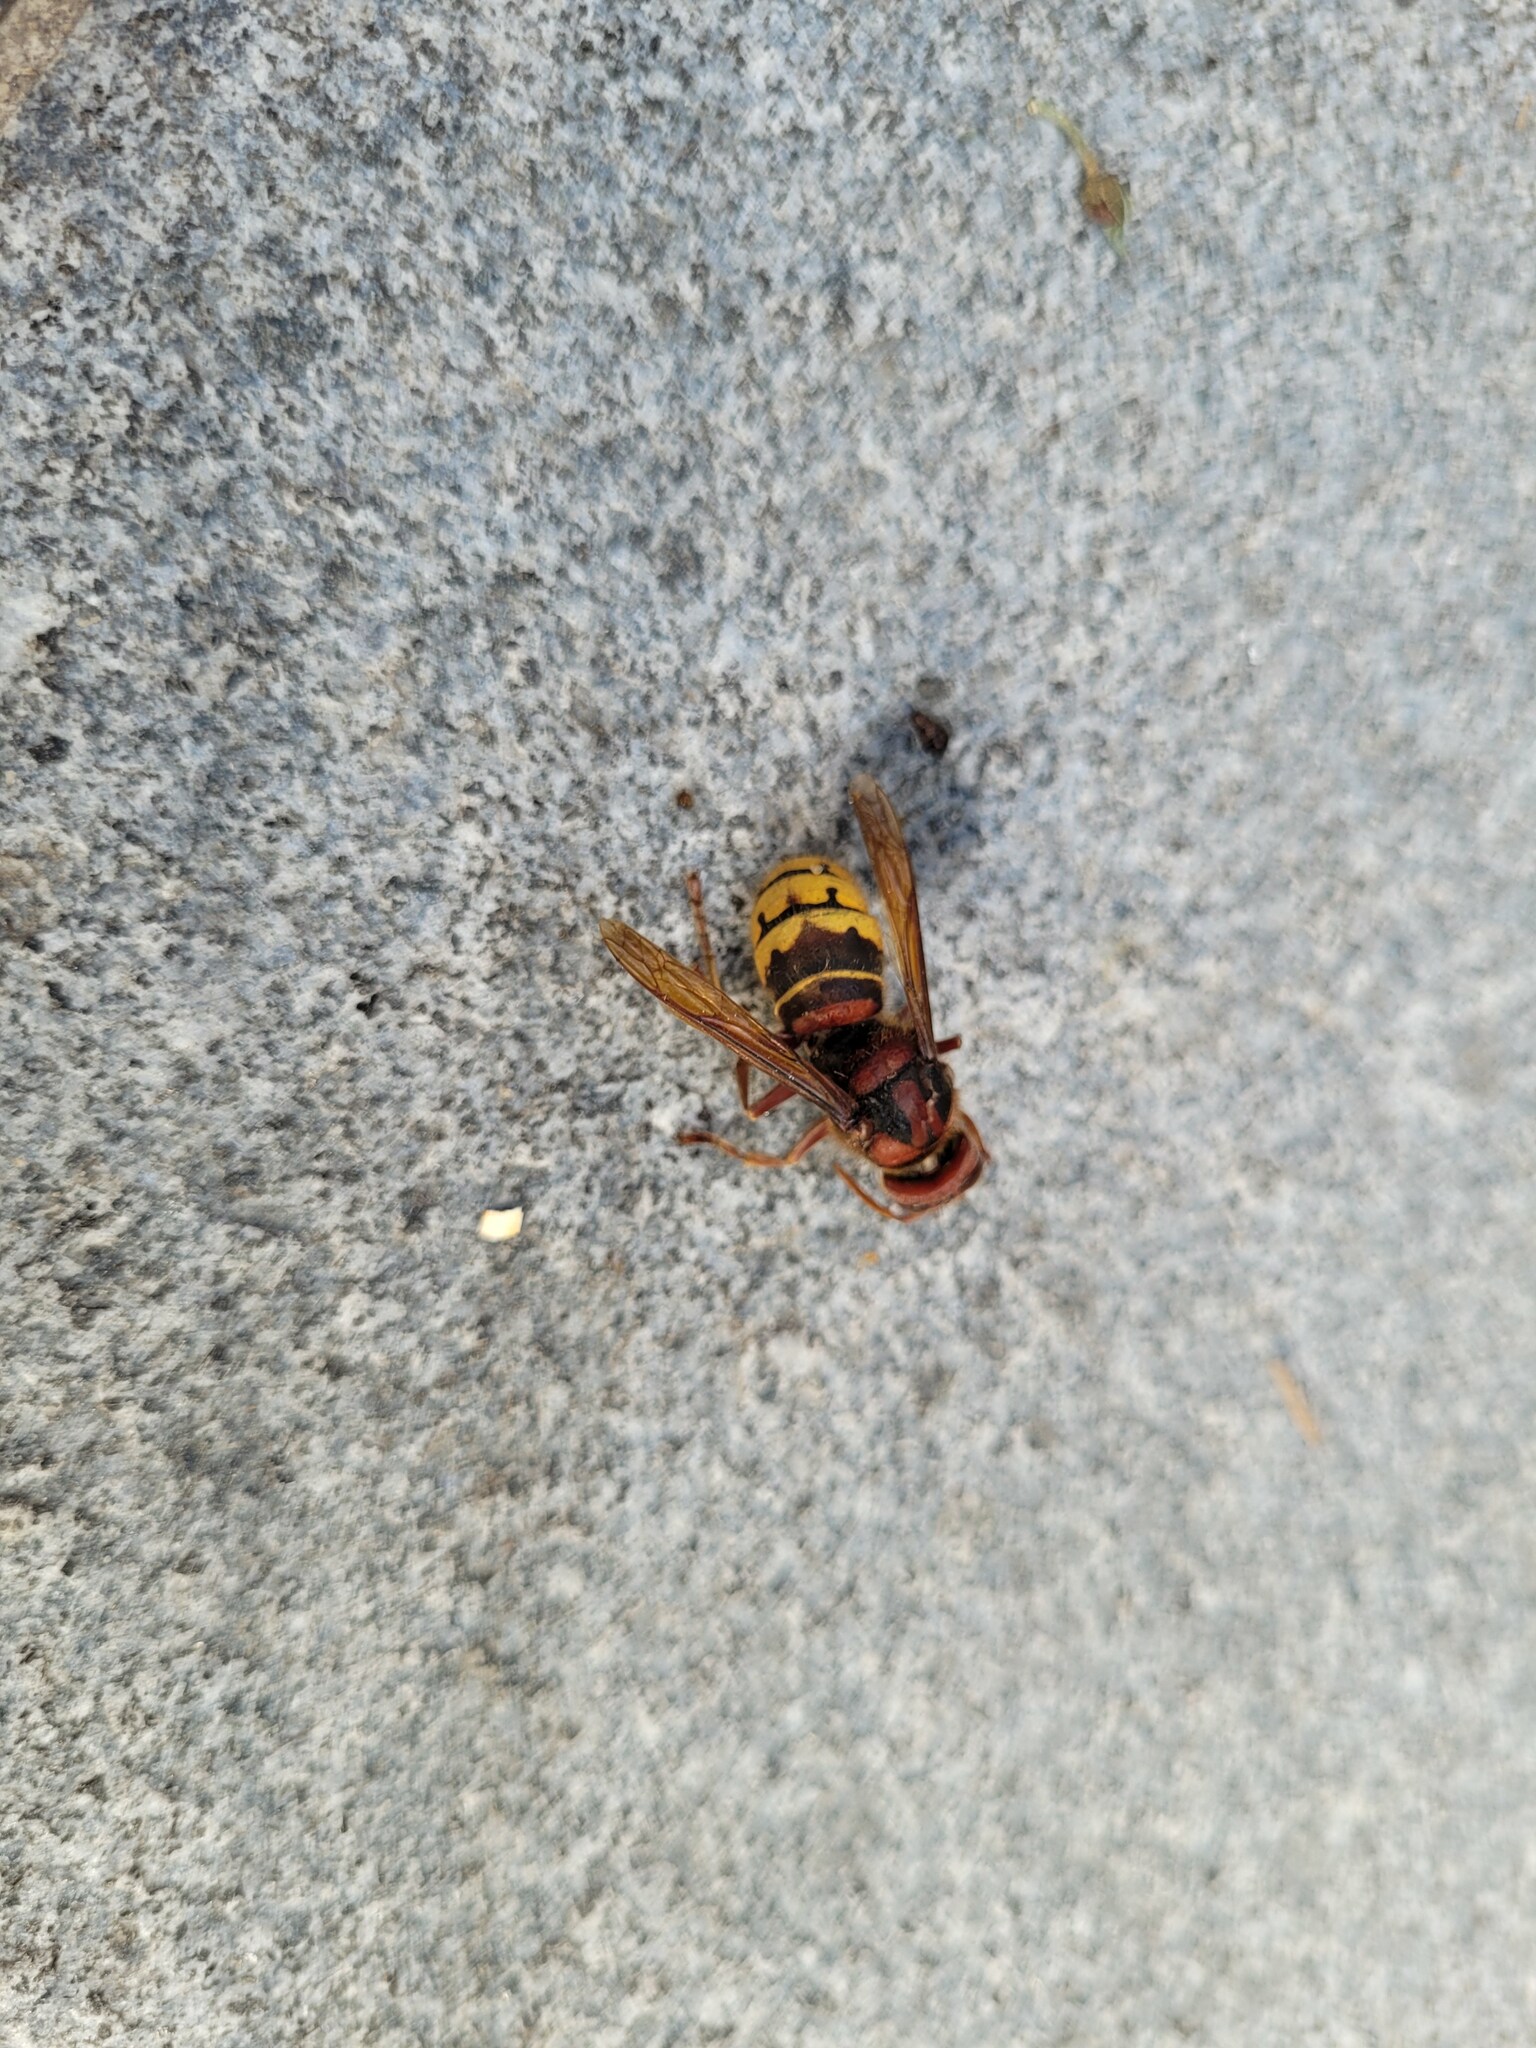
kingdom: Animalia
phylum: Arthropoda
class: Insecta
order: Hymenoptera
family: Vespidae
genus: Vespa
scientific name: Vespa crabro
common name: Hornet
